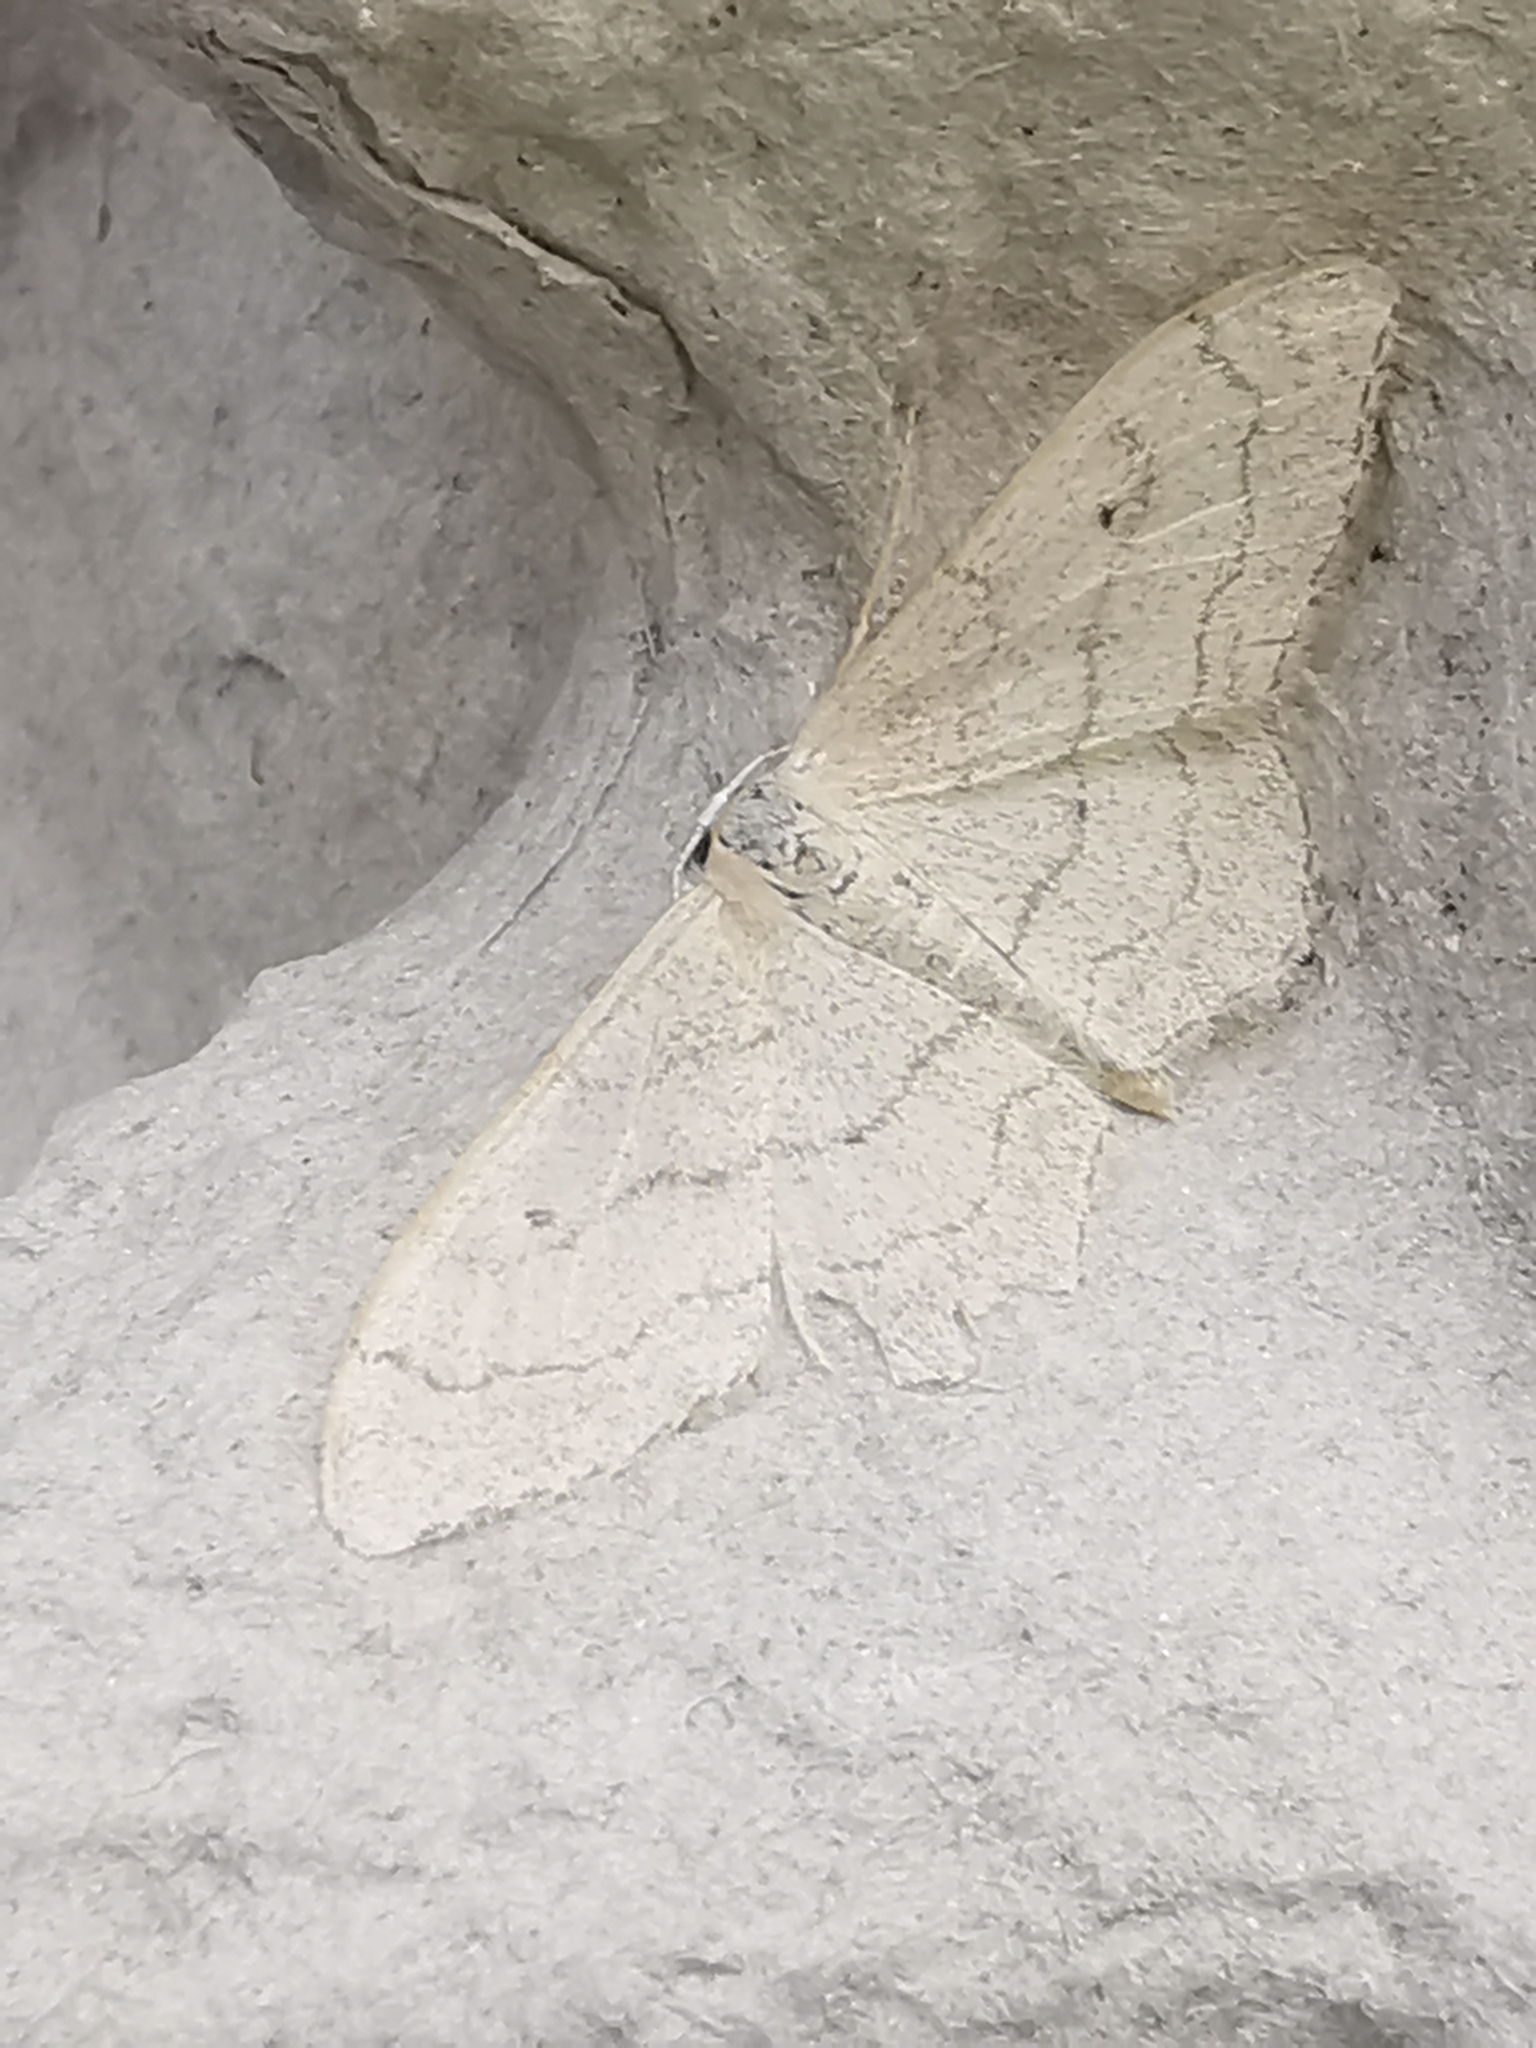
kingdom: Animalia
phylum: Arthropoda
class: Insecta
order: Lepidoptera
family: Geometridae
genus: Idaea
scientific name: Idaea aversata
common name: Riband wave
